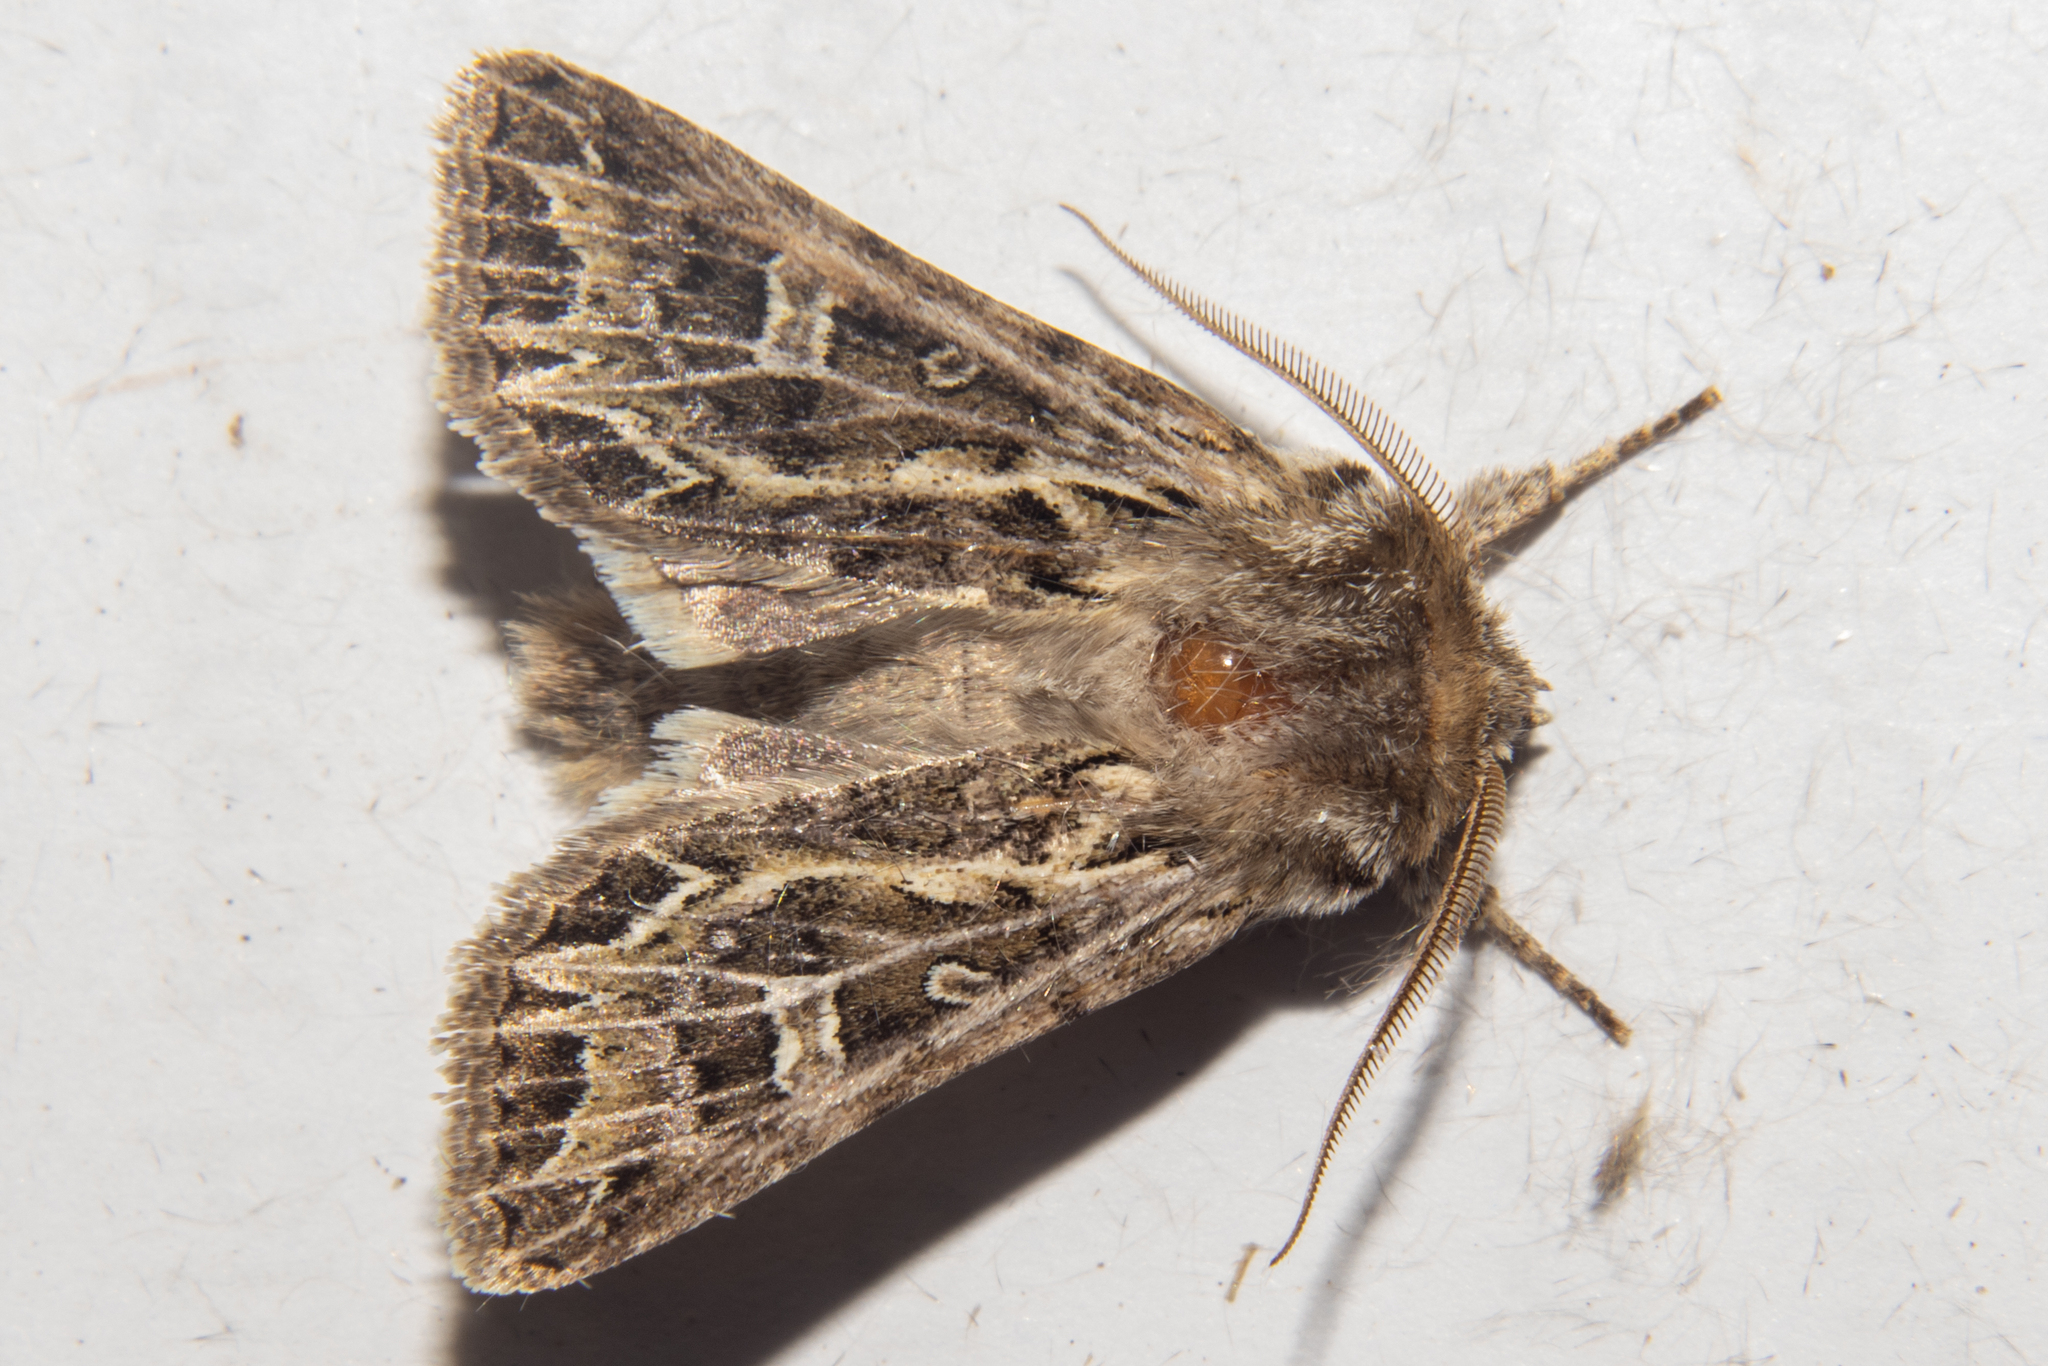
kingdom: Animalia
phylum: Arthropoda
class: Insecta
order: Lepidoptera
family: Noctuidae
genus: Ichneutica
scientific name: Ichneutica
